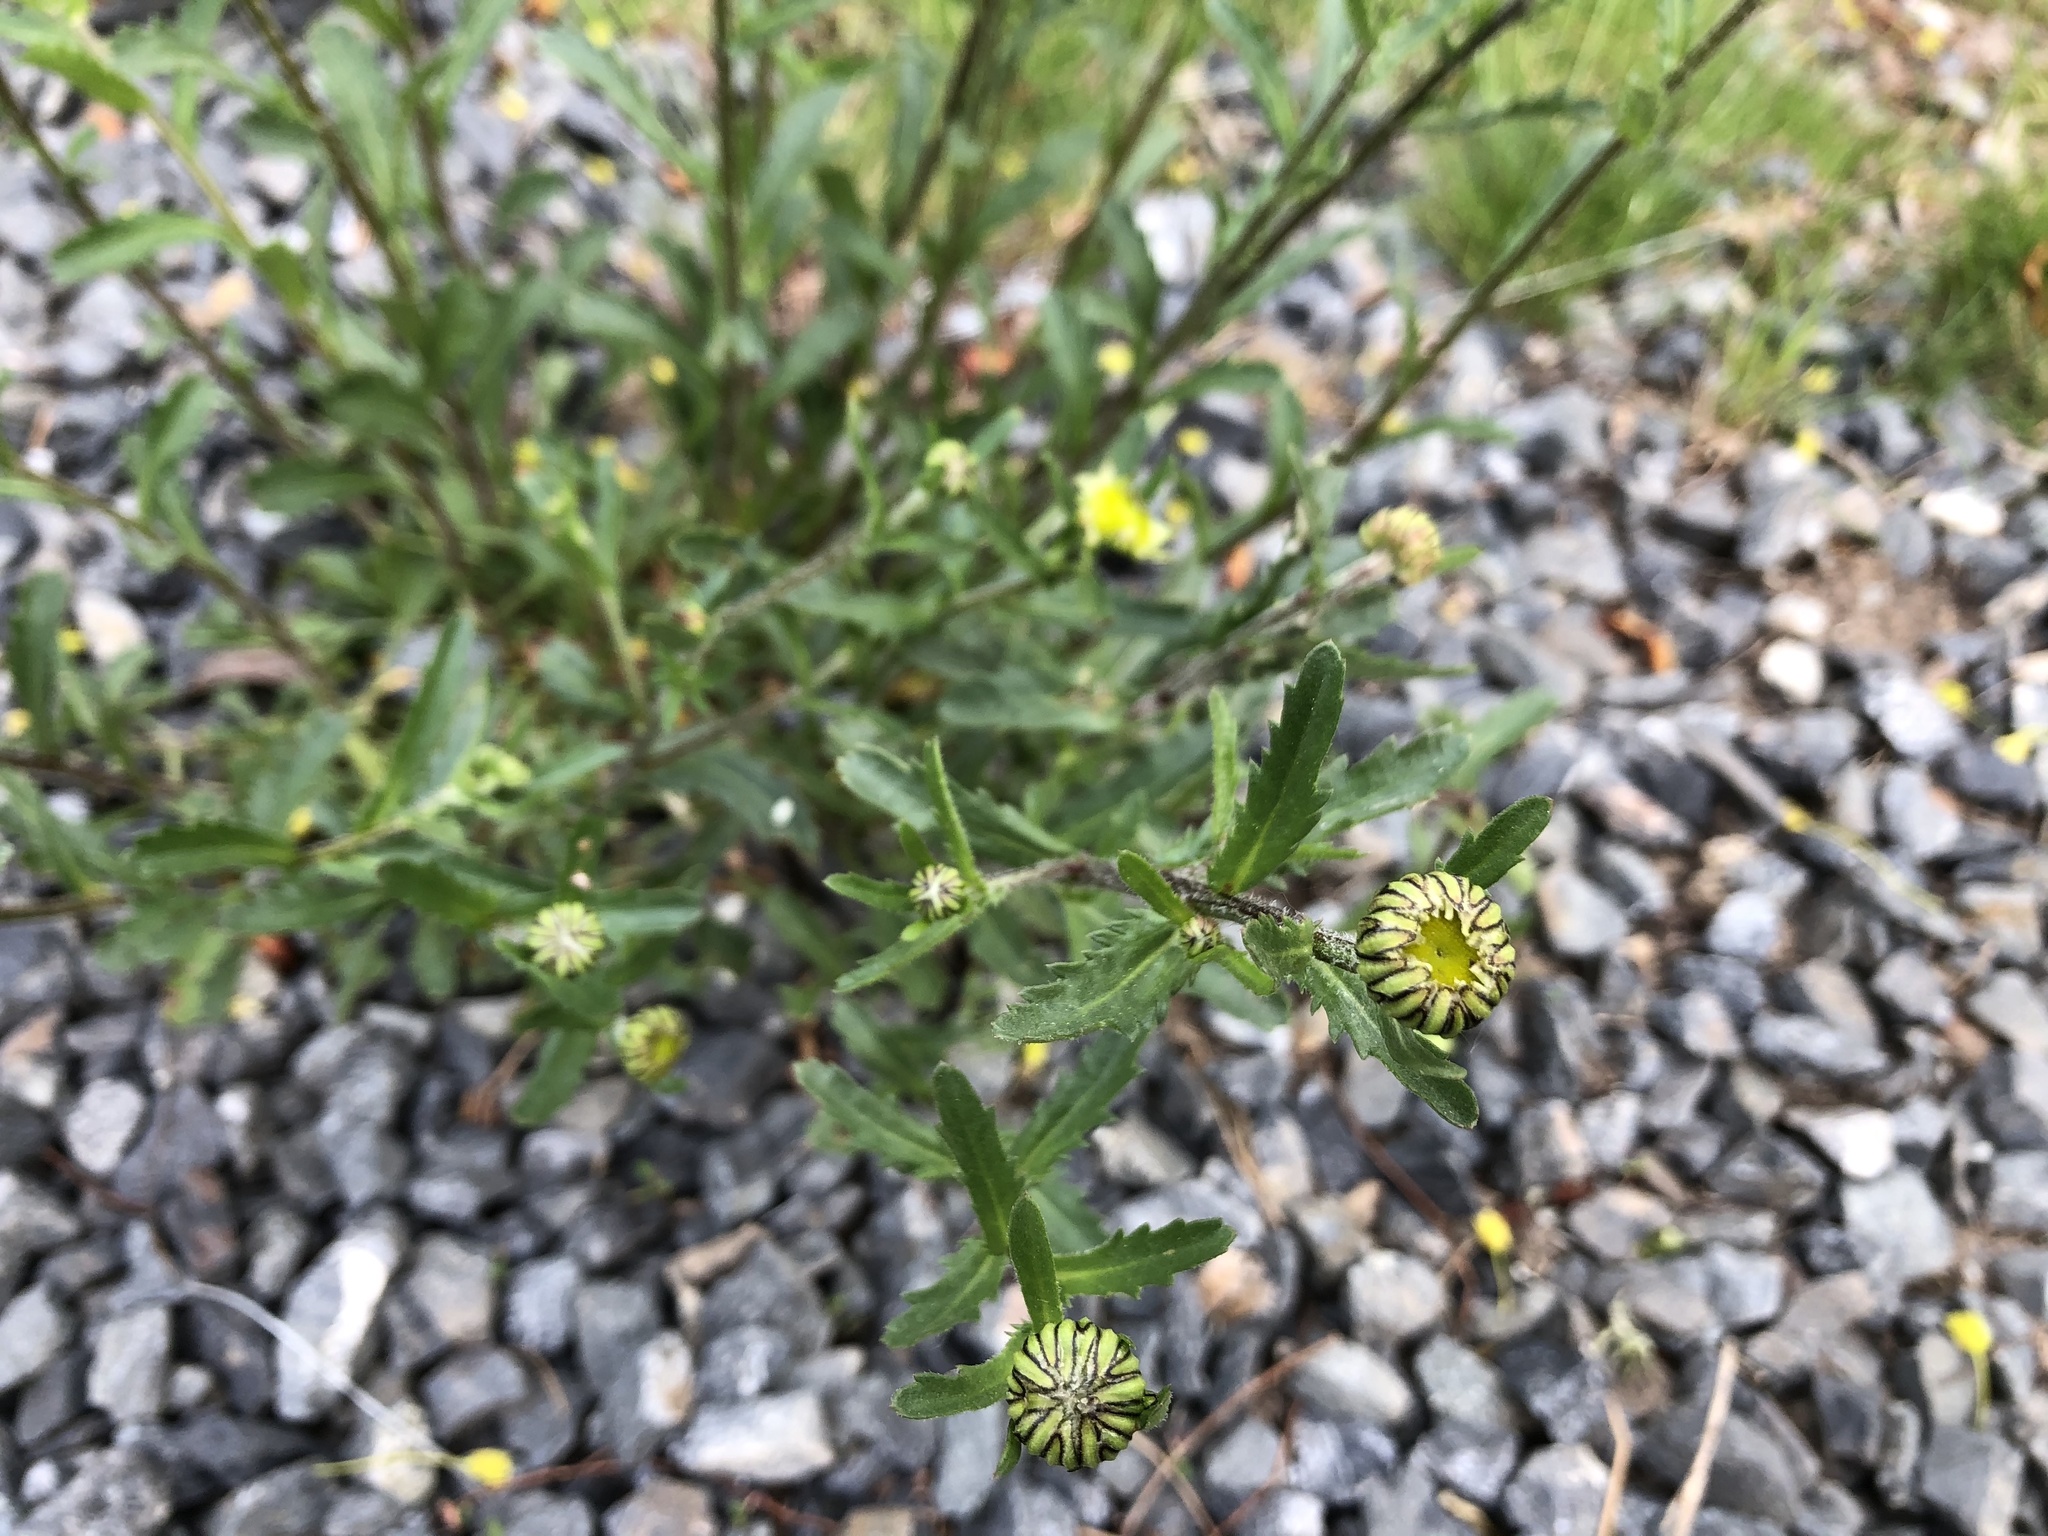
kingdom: Plantae
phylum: Tracheophyta
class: Magnoliopsida
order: Asterales
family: Asteraceae
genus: Leucanthemum
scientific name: Leucanthemum vulgare
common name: Oxeye daisy
